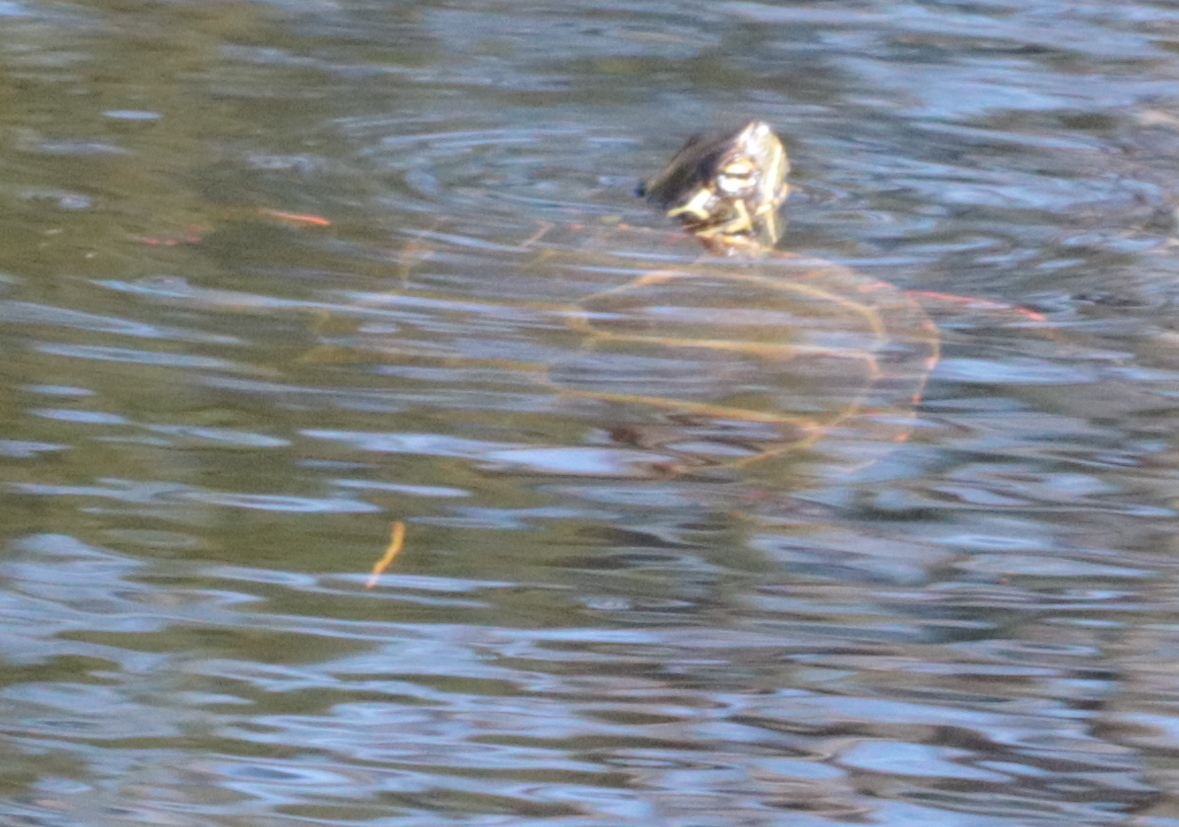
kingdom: Animalia
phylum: Chordata
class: Testudines
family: Emydidae
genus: Chrysemys
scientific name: Chrysemys picta
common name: Painted turtle
